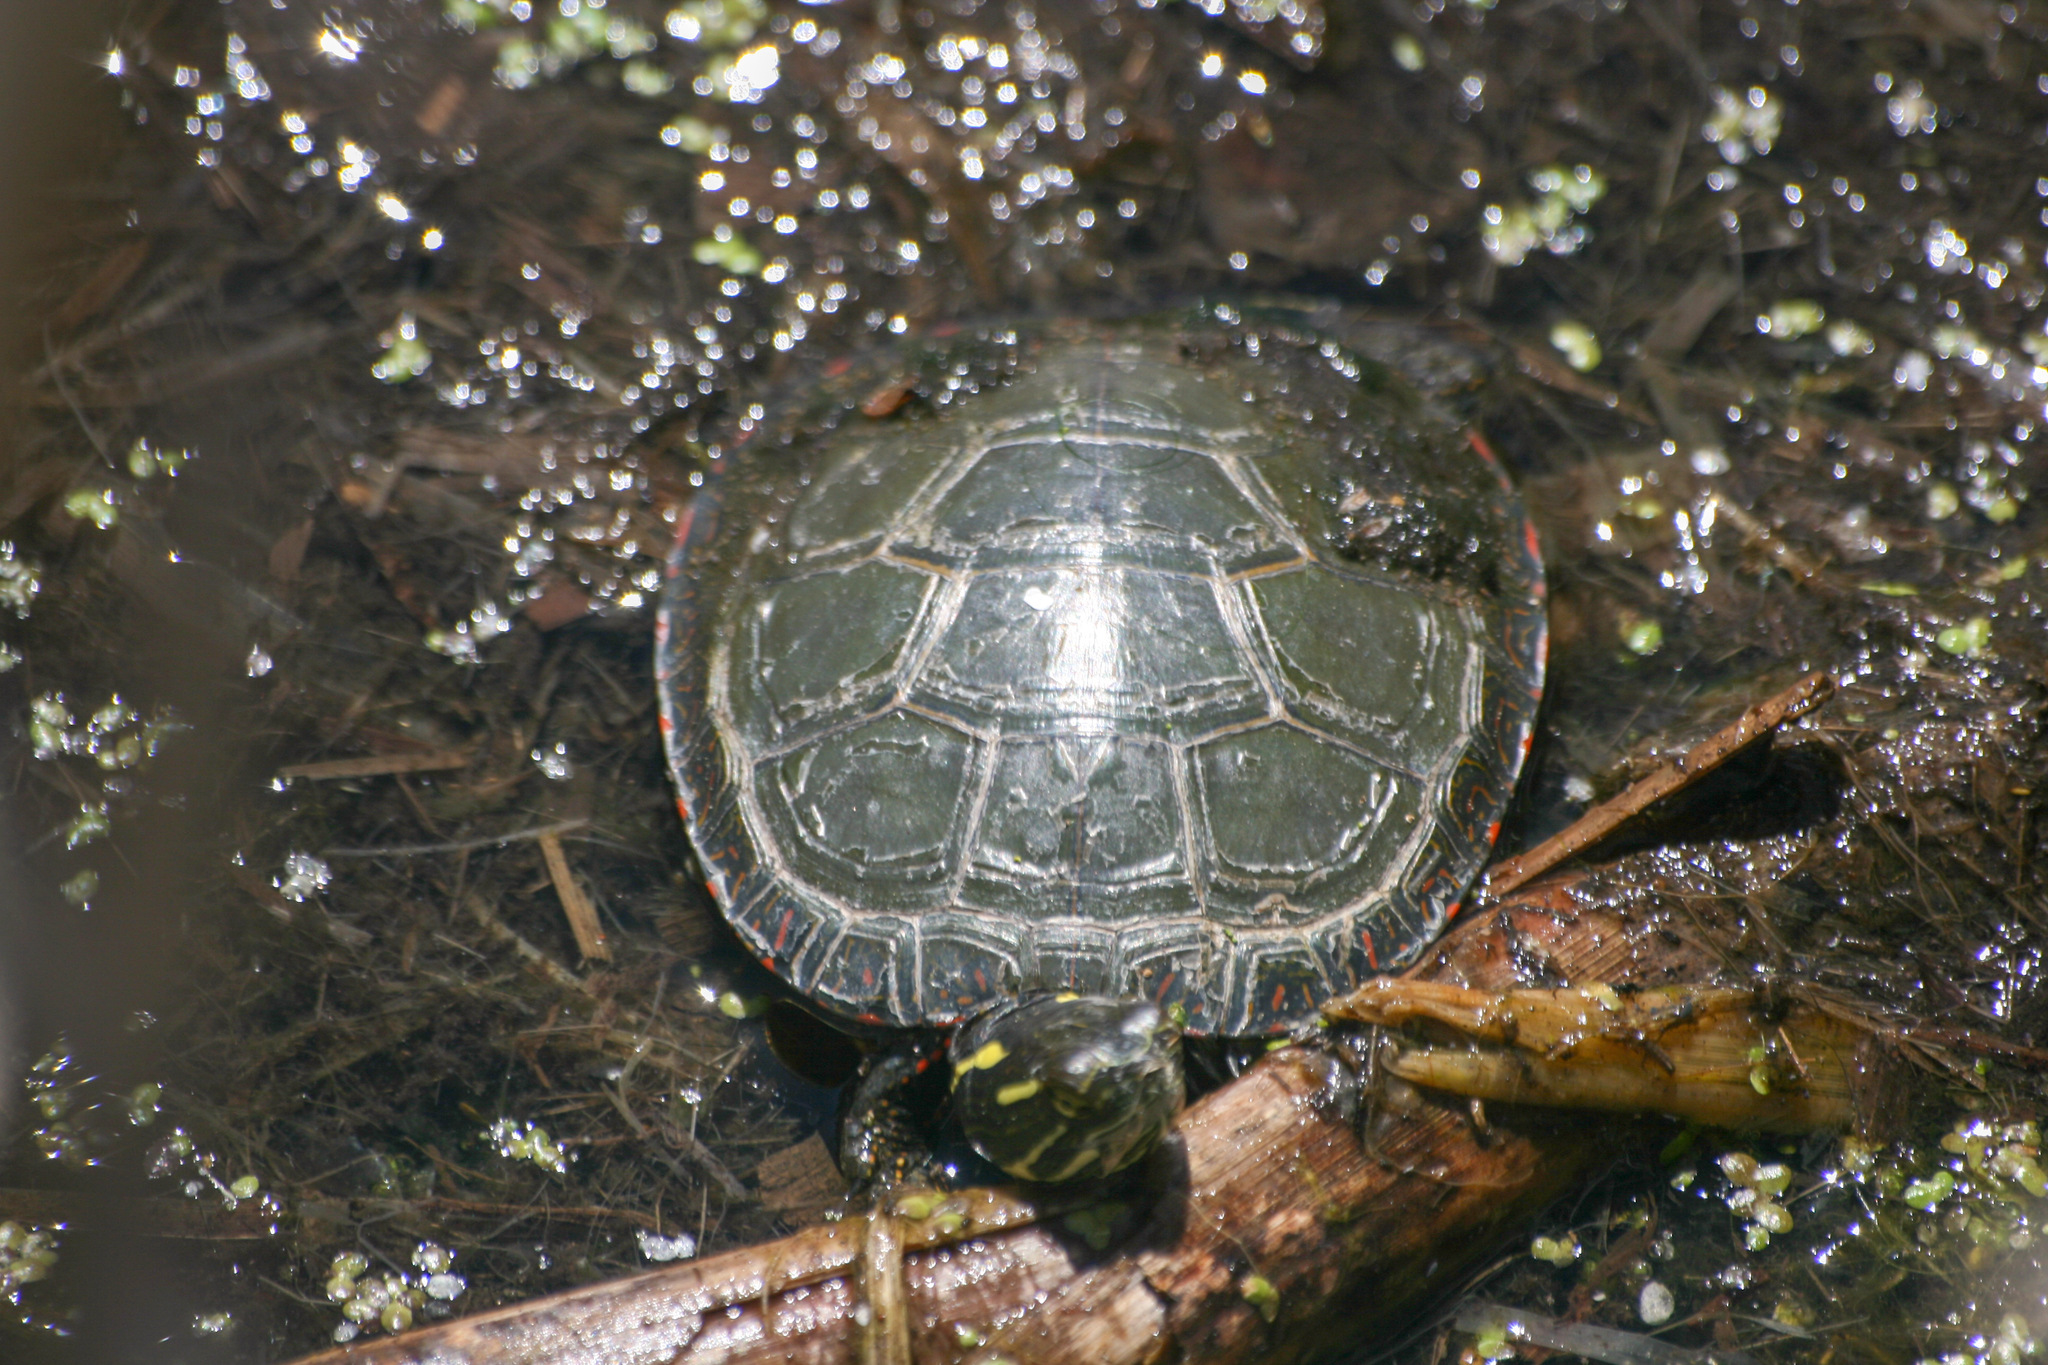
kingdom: Animalia
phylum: Chordata
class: Testudines
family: Emydidae
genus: Chrysemys
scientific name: Chrysemys picta
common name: Painted turtle
